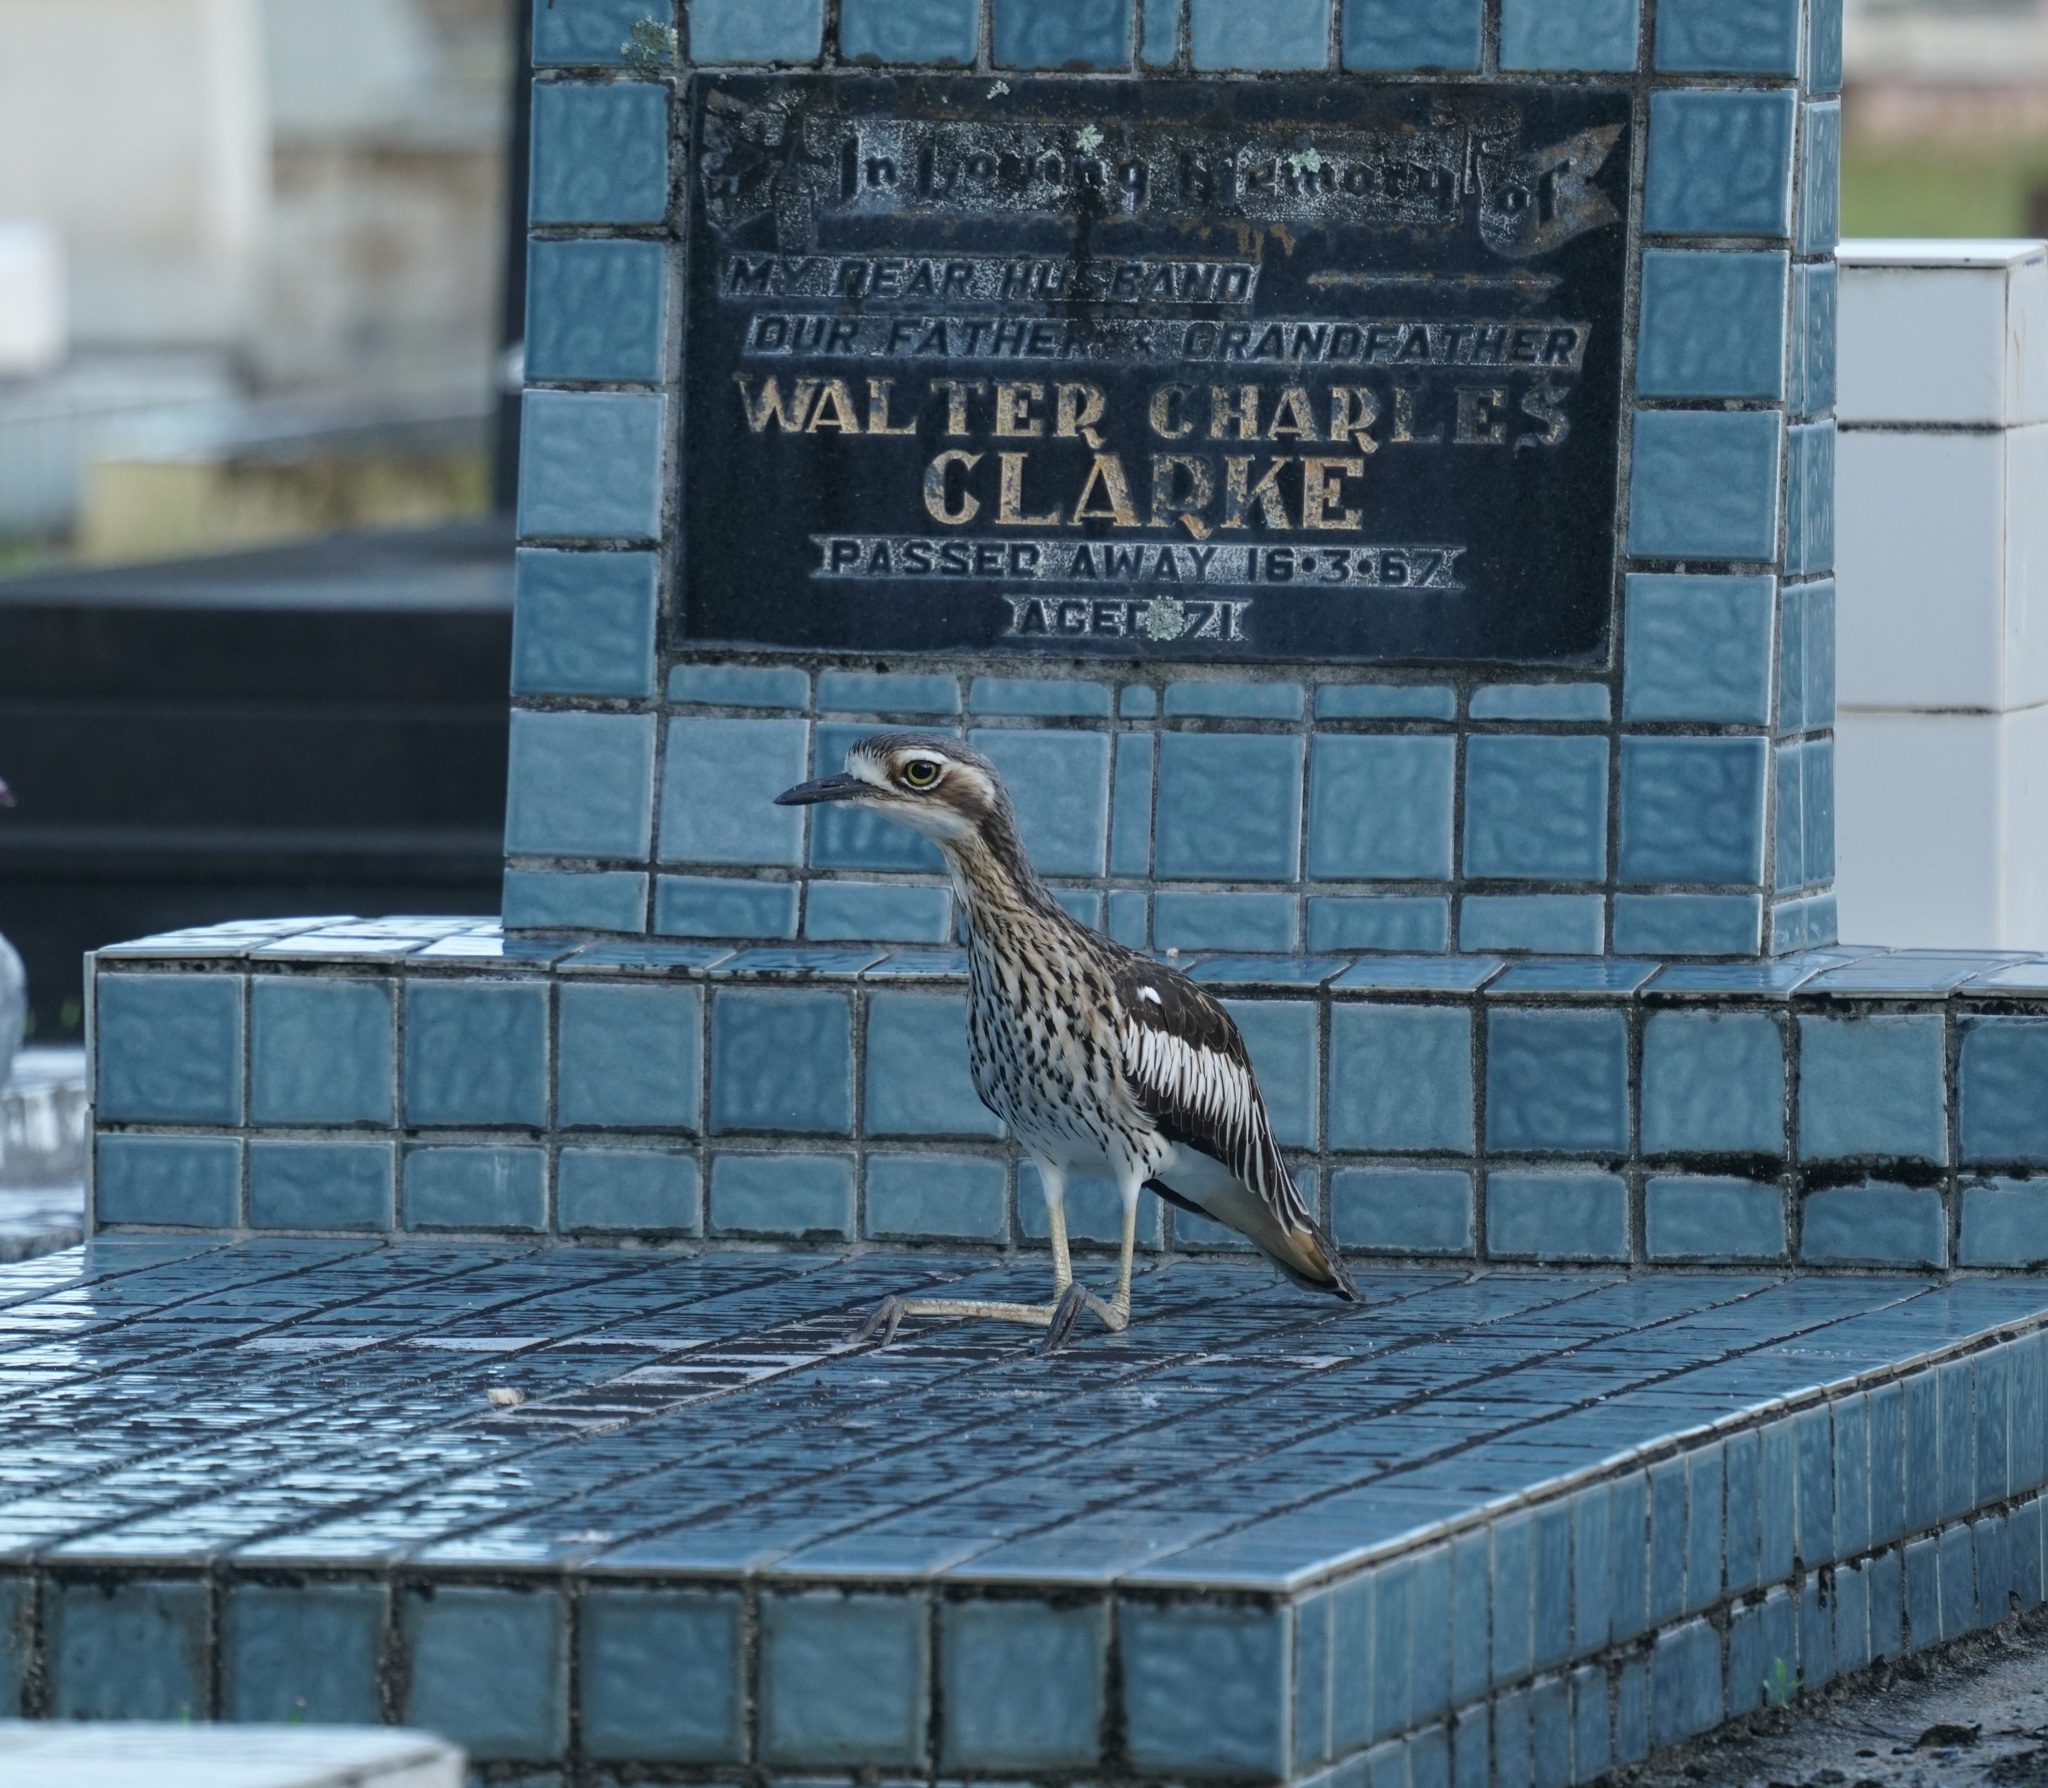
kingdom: Animalia
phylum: Chordata
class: Aves
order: Charadriiformes
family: Burhinidae
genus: Burhinus
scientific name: Burhinus grallarius
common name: Bush stone-curlew
